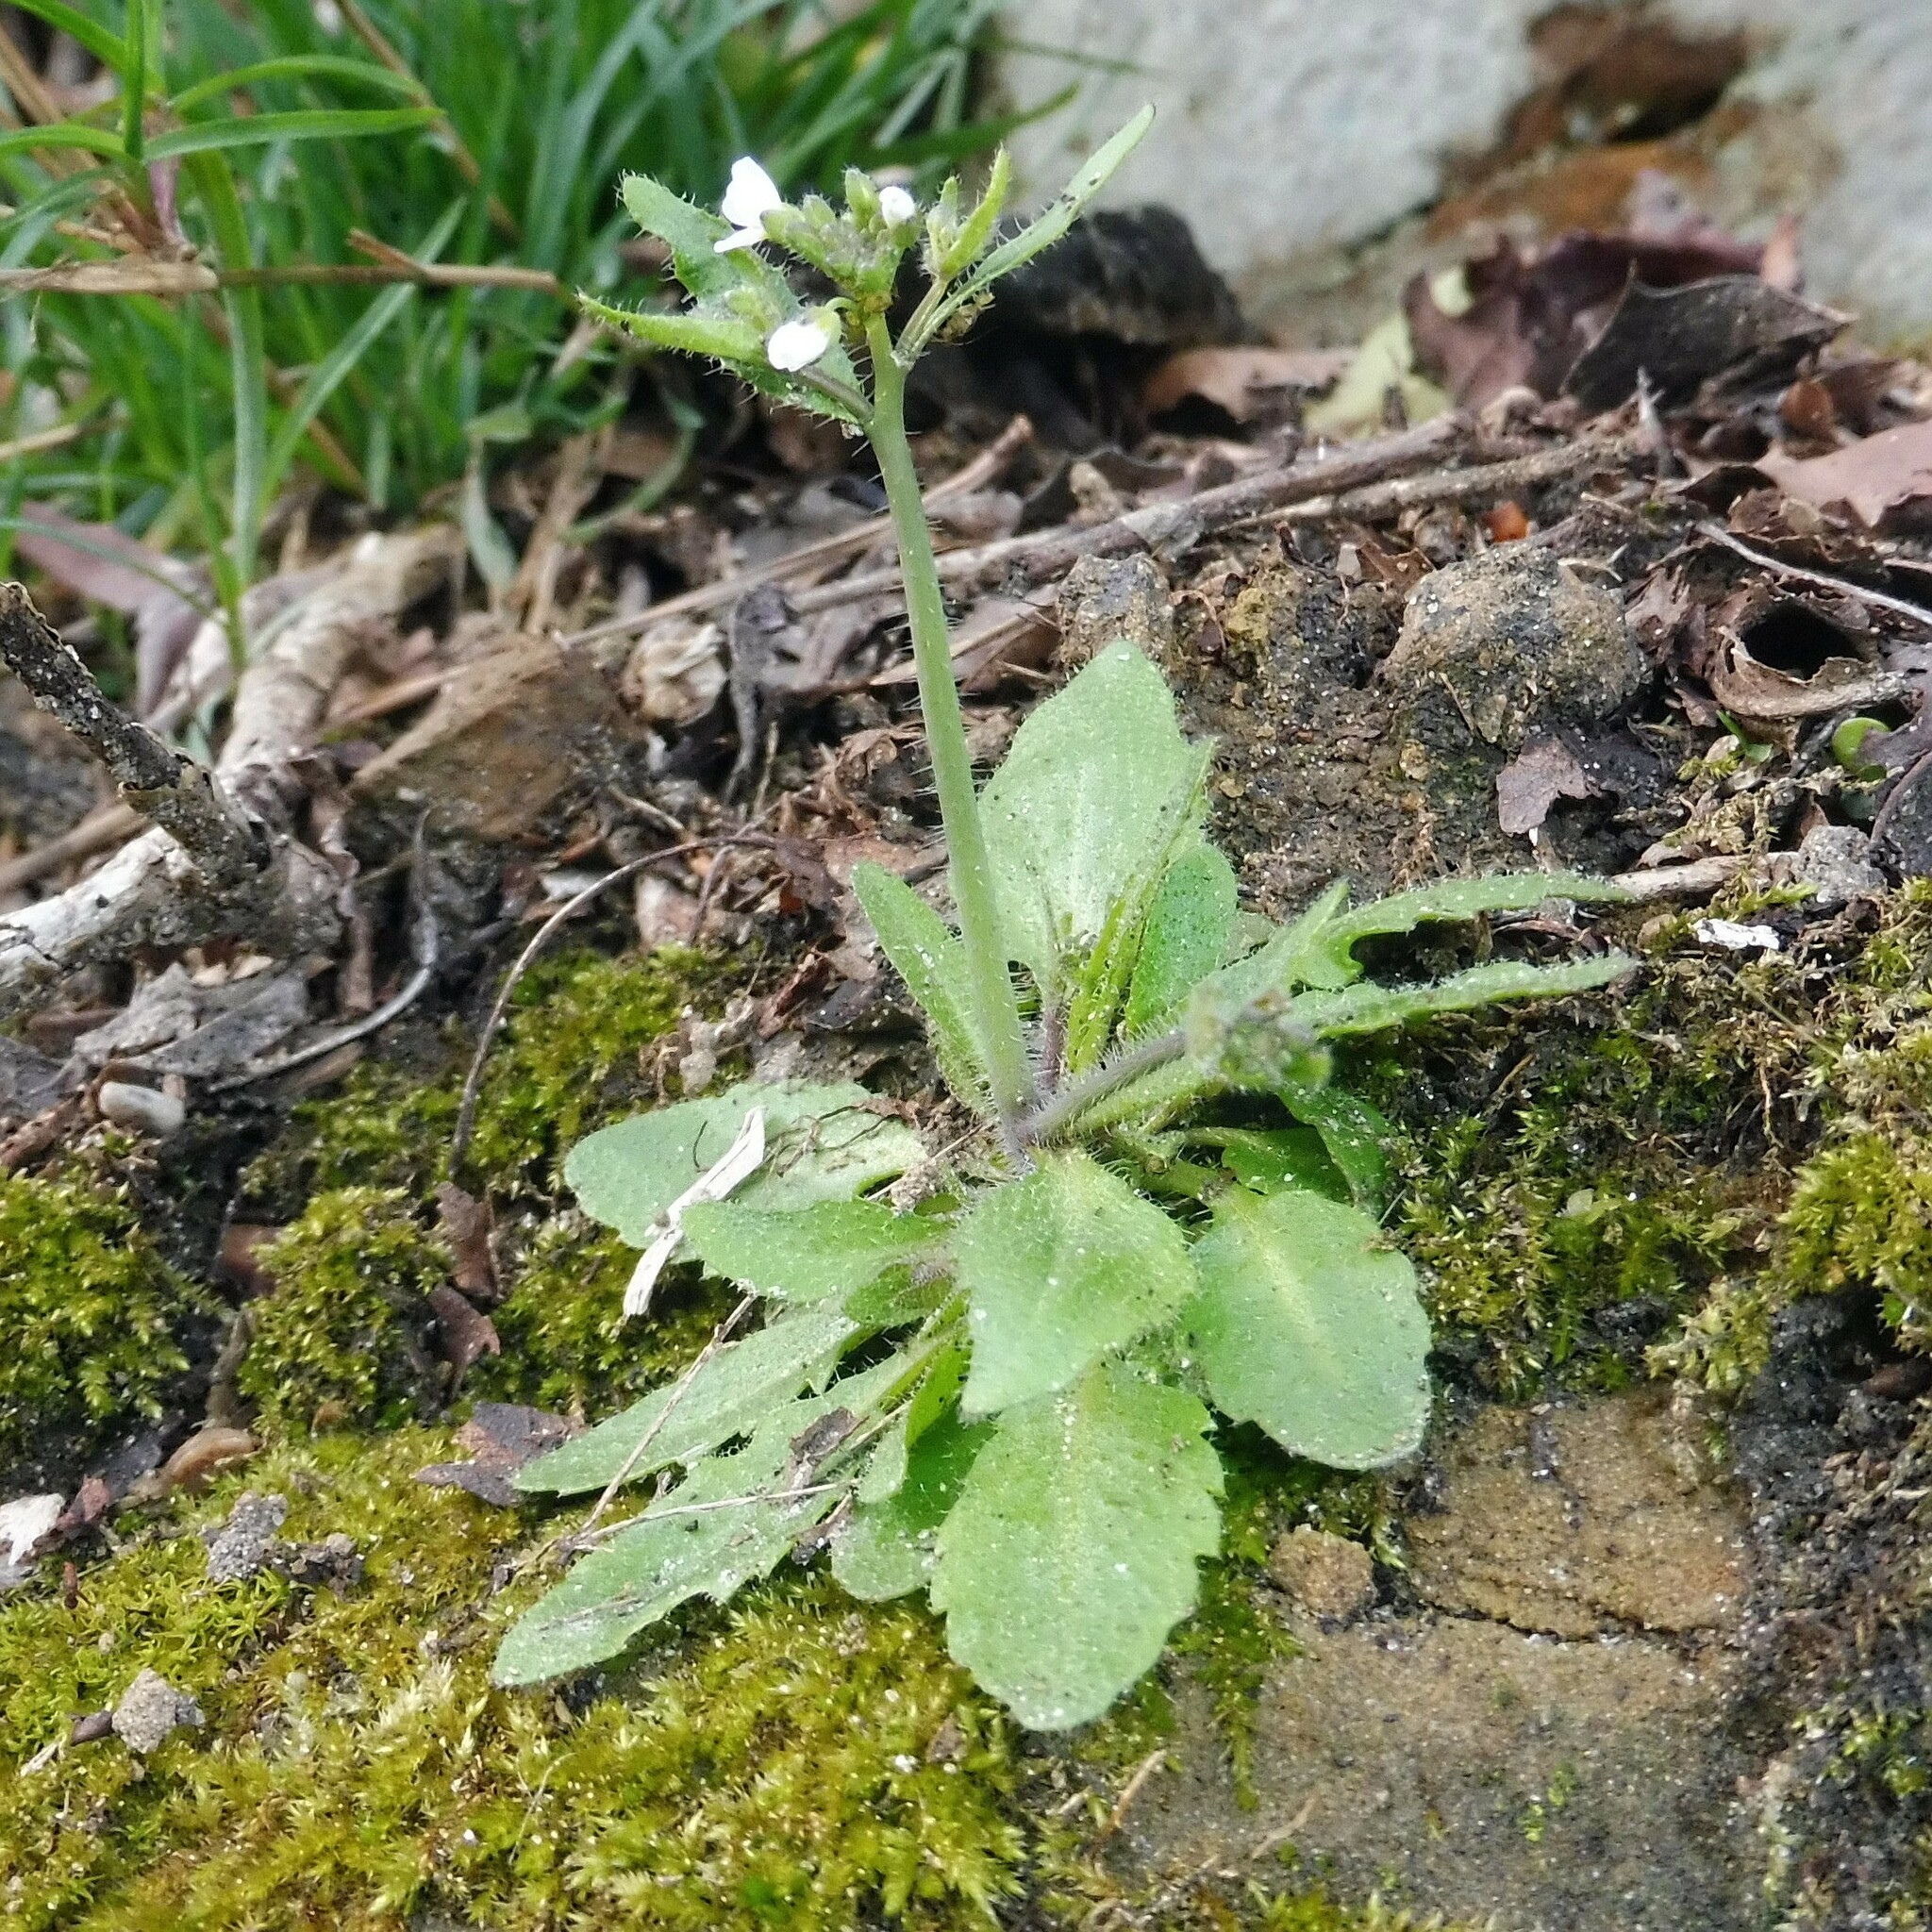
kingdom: Plantae
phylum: Tracheophyta
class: Magnoliopsida
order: Brassicales
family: Brassicaceae
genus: Arabidopsis
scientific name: Arabidopsis thaliana
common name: Thale cress
